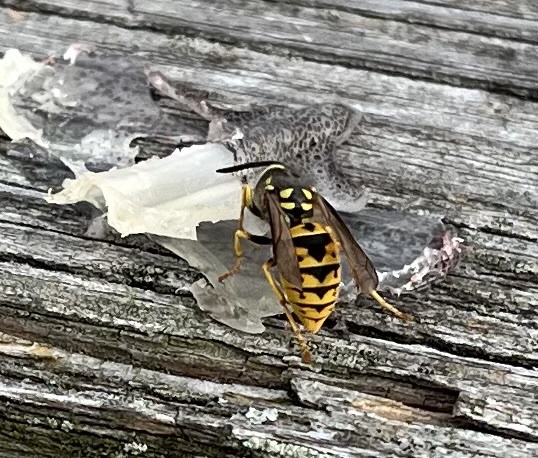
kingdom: Animalia
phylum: Arthropoda
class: Insecta
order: Hymenoptera
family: Vespidae
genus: Vespula
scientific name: Vespula germanica
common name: German wasp
